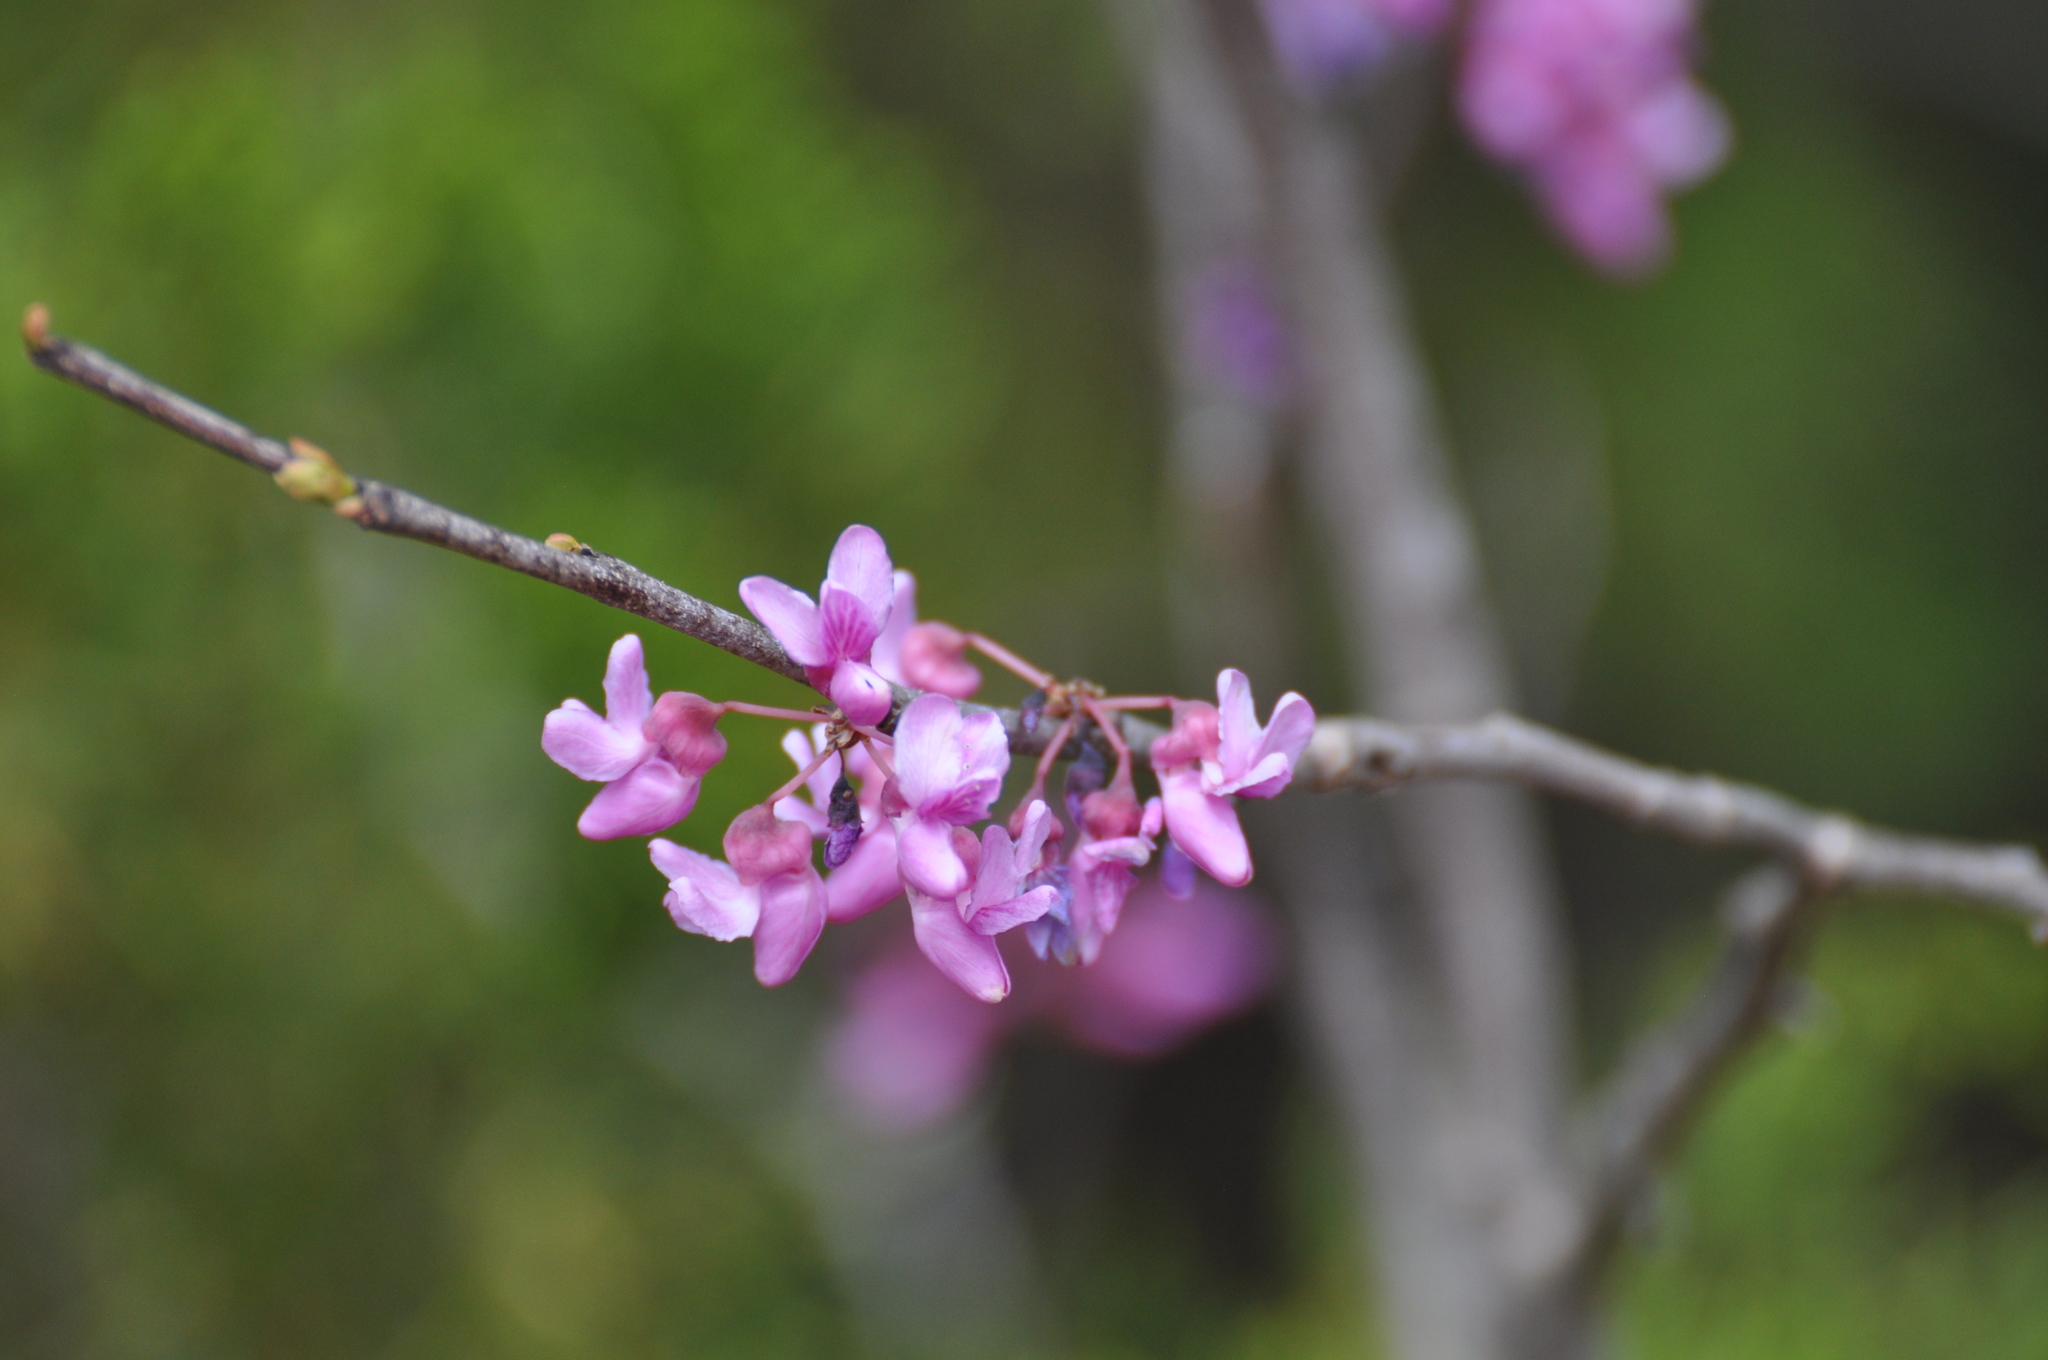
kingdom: Plantae
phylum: Tracheophyta
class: Magnoliopsida
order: Fabales
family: Fabaceae
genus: Cercis
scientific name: Cercis canadensis
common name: Eastern redbud
